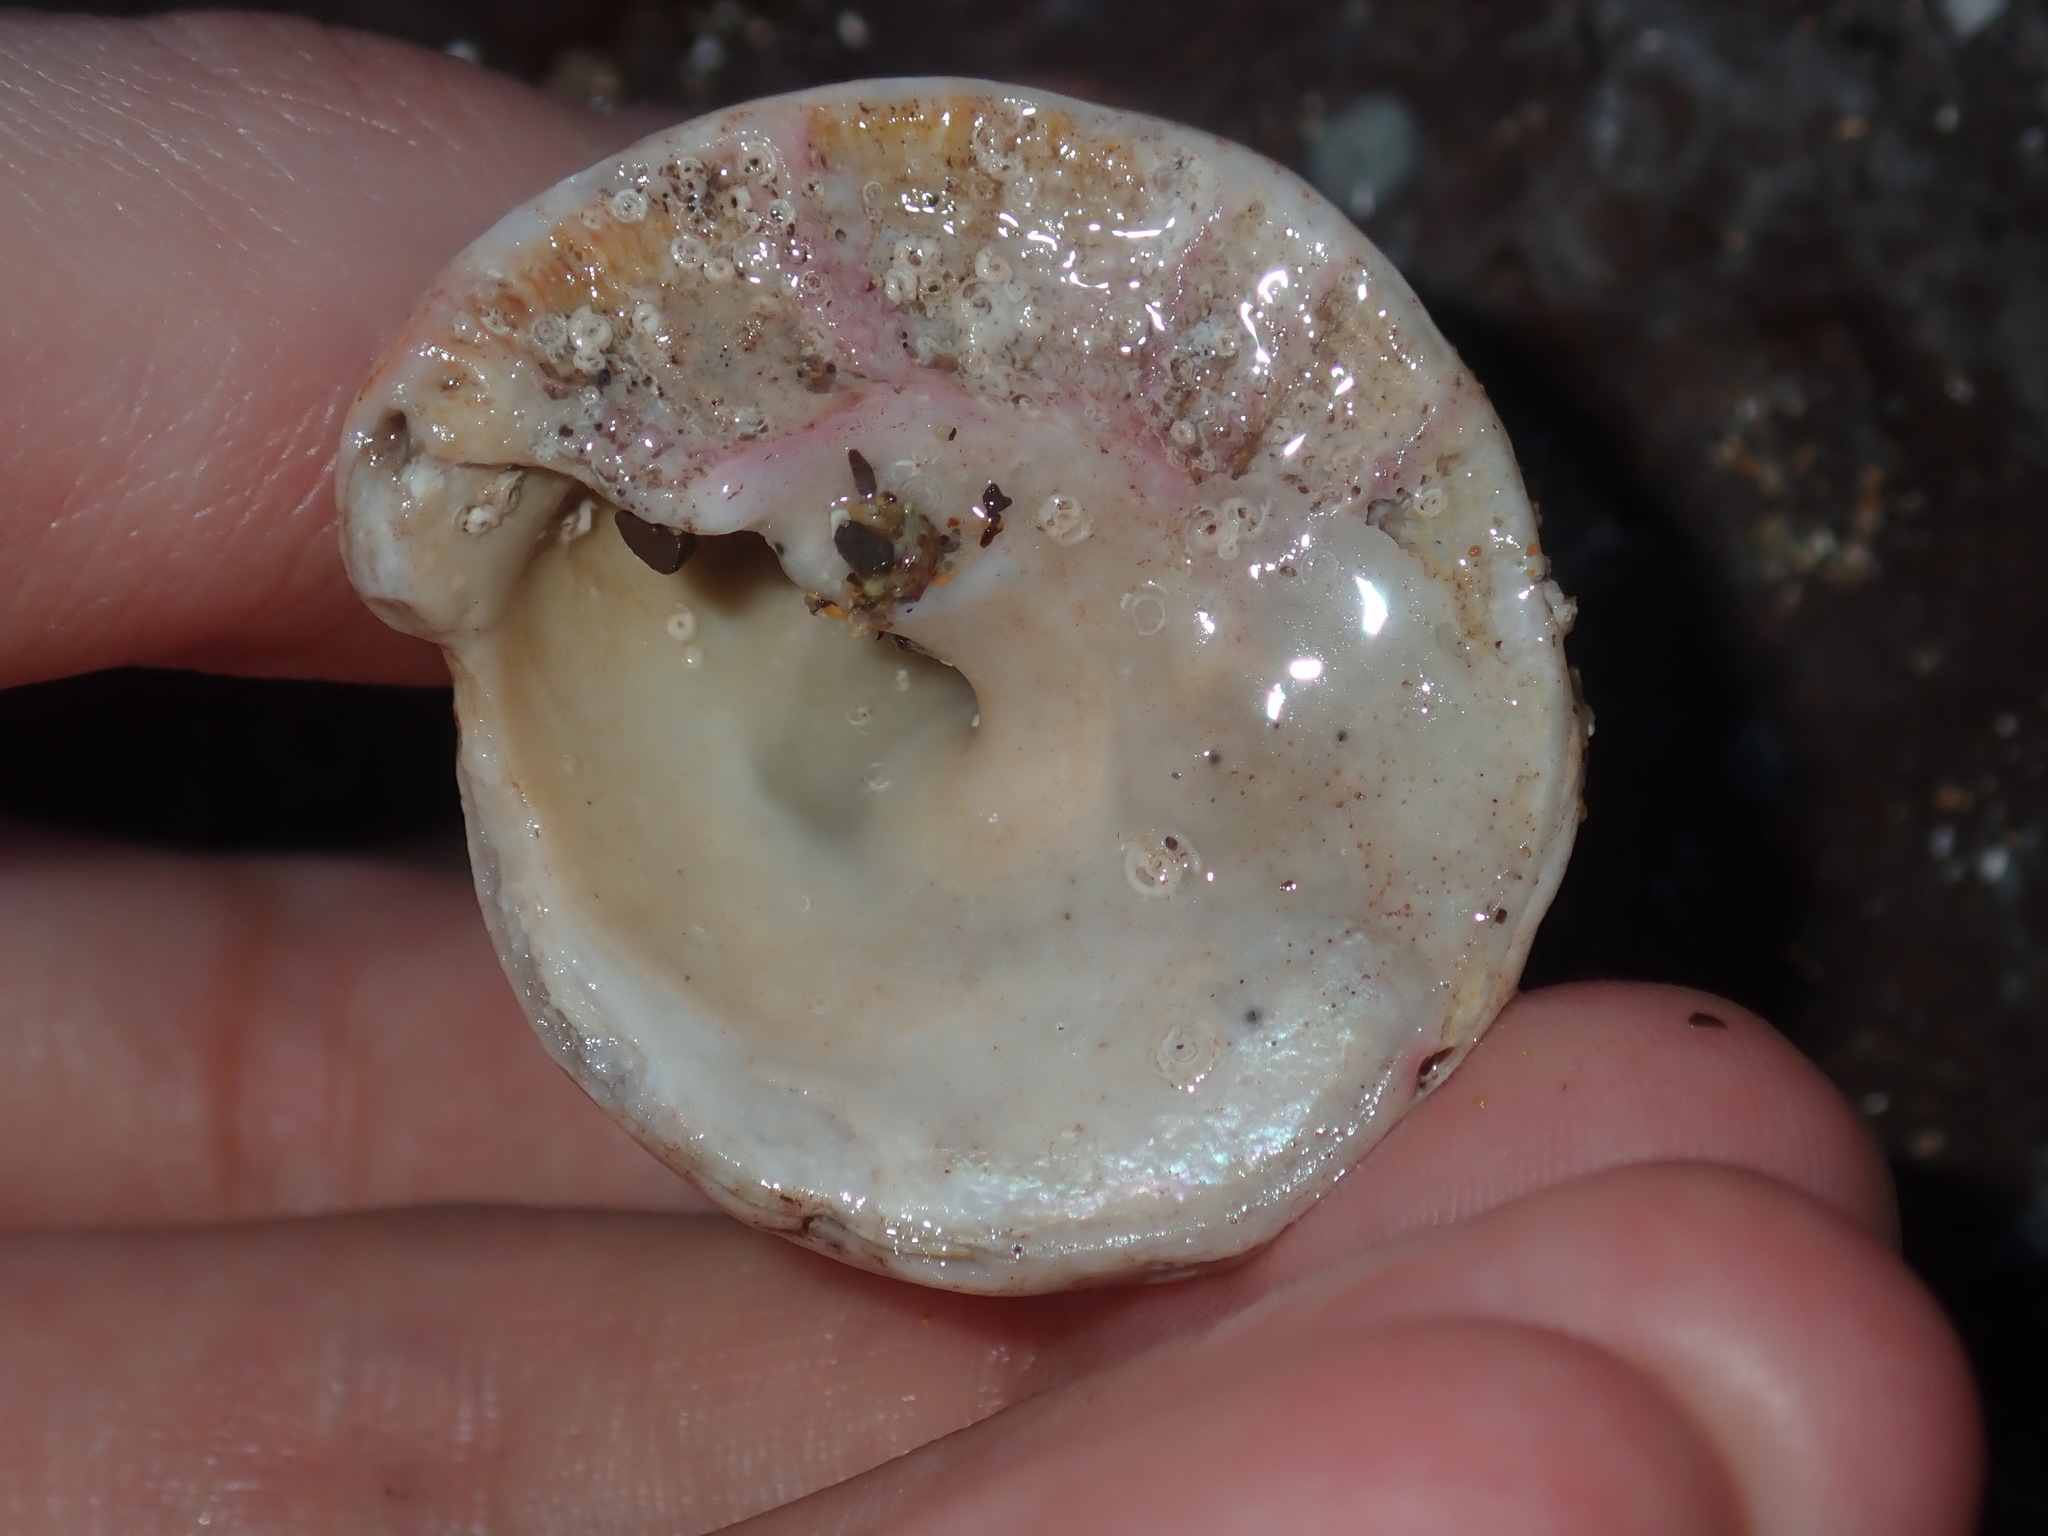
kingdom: Animalia
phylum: Mollusca
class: Gastropoda
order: Trochida
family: Turbinidae
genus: Astralium
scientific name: Astralium tentoriiforme
